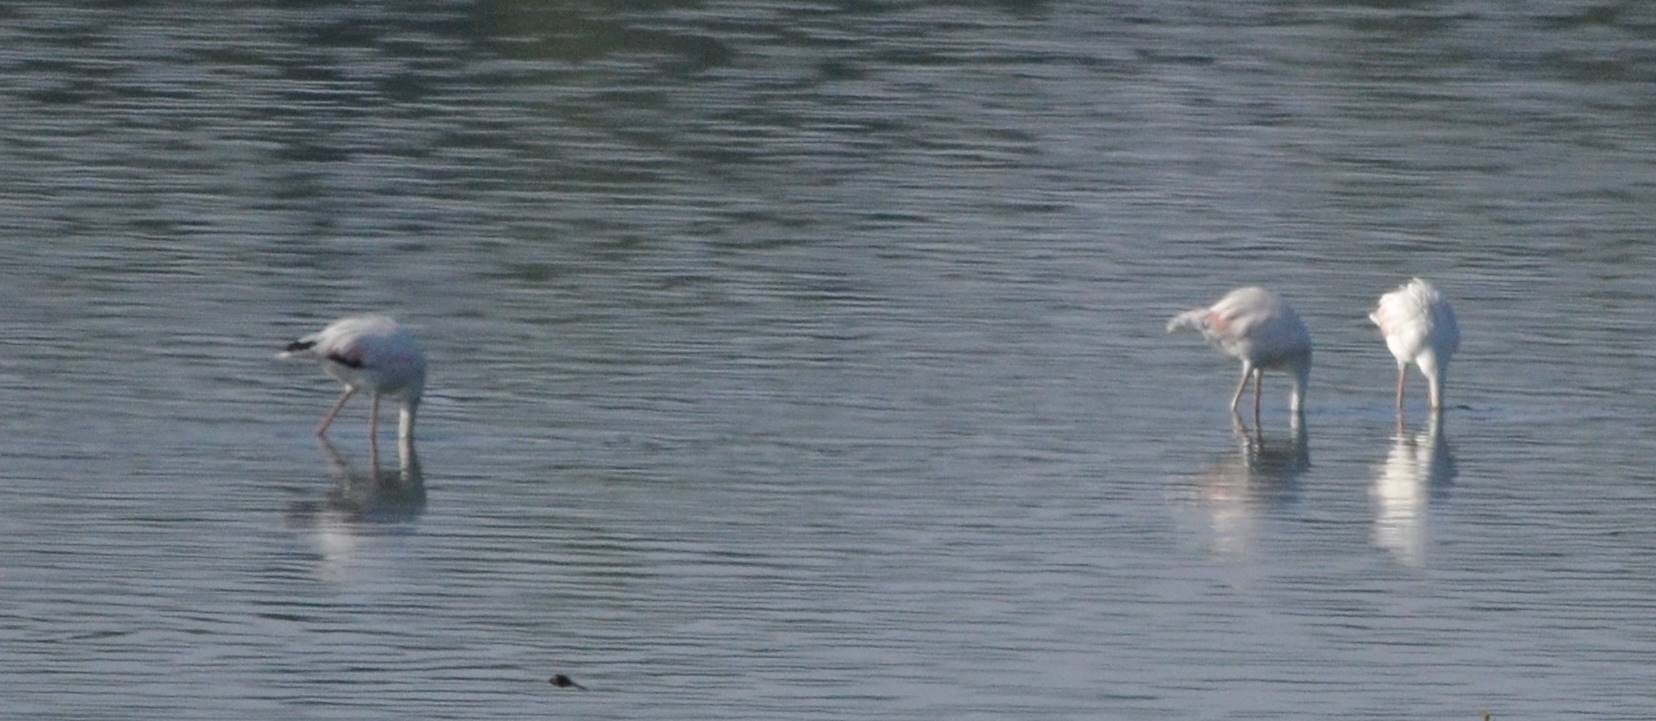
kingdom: Animalia
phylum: Chordata
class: Aves
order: Phoenicopteriformes
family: Phoenicopteridae
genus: Phoenicopterus
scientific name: Phoenicopterus roseus
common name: Greater flamingo
